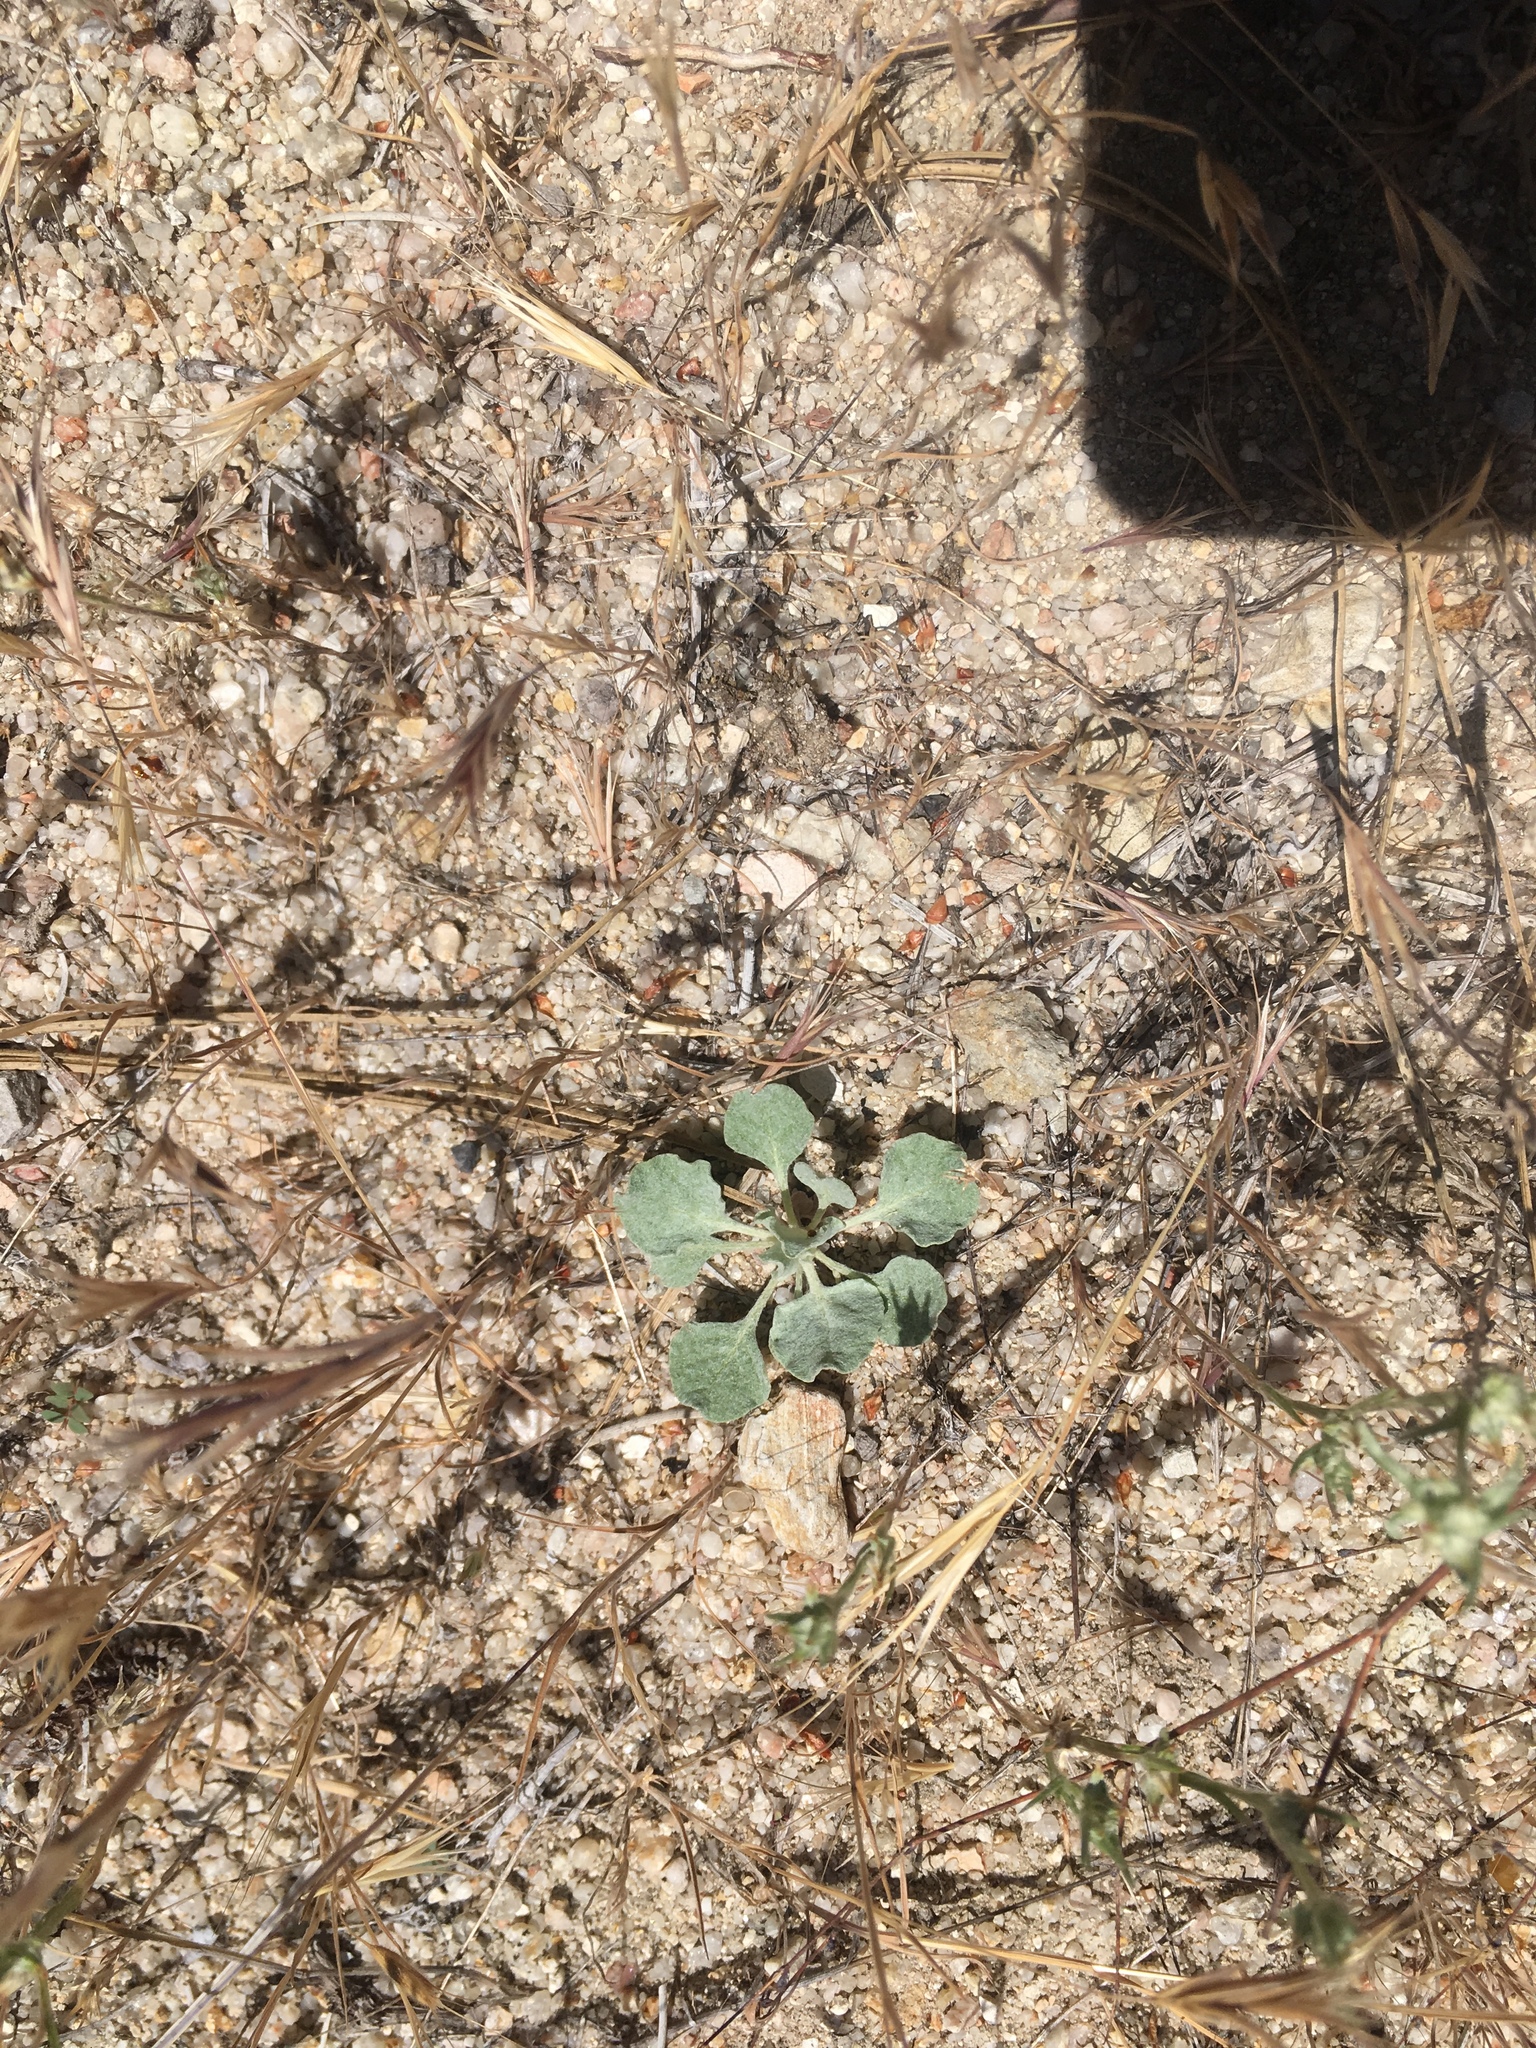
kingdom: Plantae
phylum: Tracheophyta
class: Magnoliopsida
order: Caryophyllales
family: Polygonaceae
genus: Eriogonum
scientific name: Eriogonum elegans
